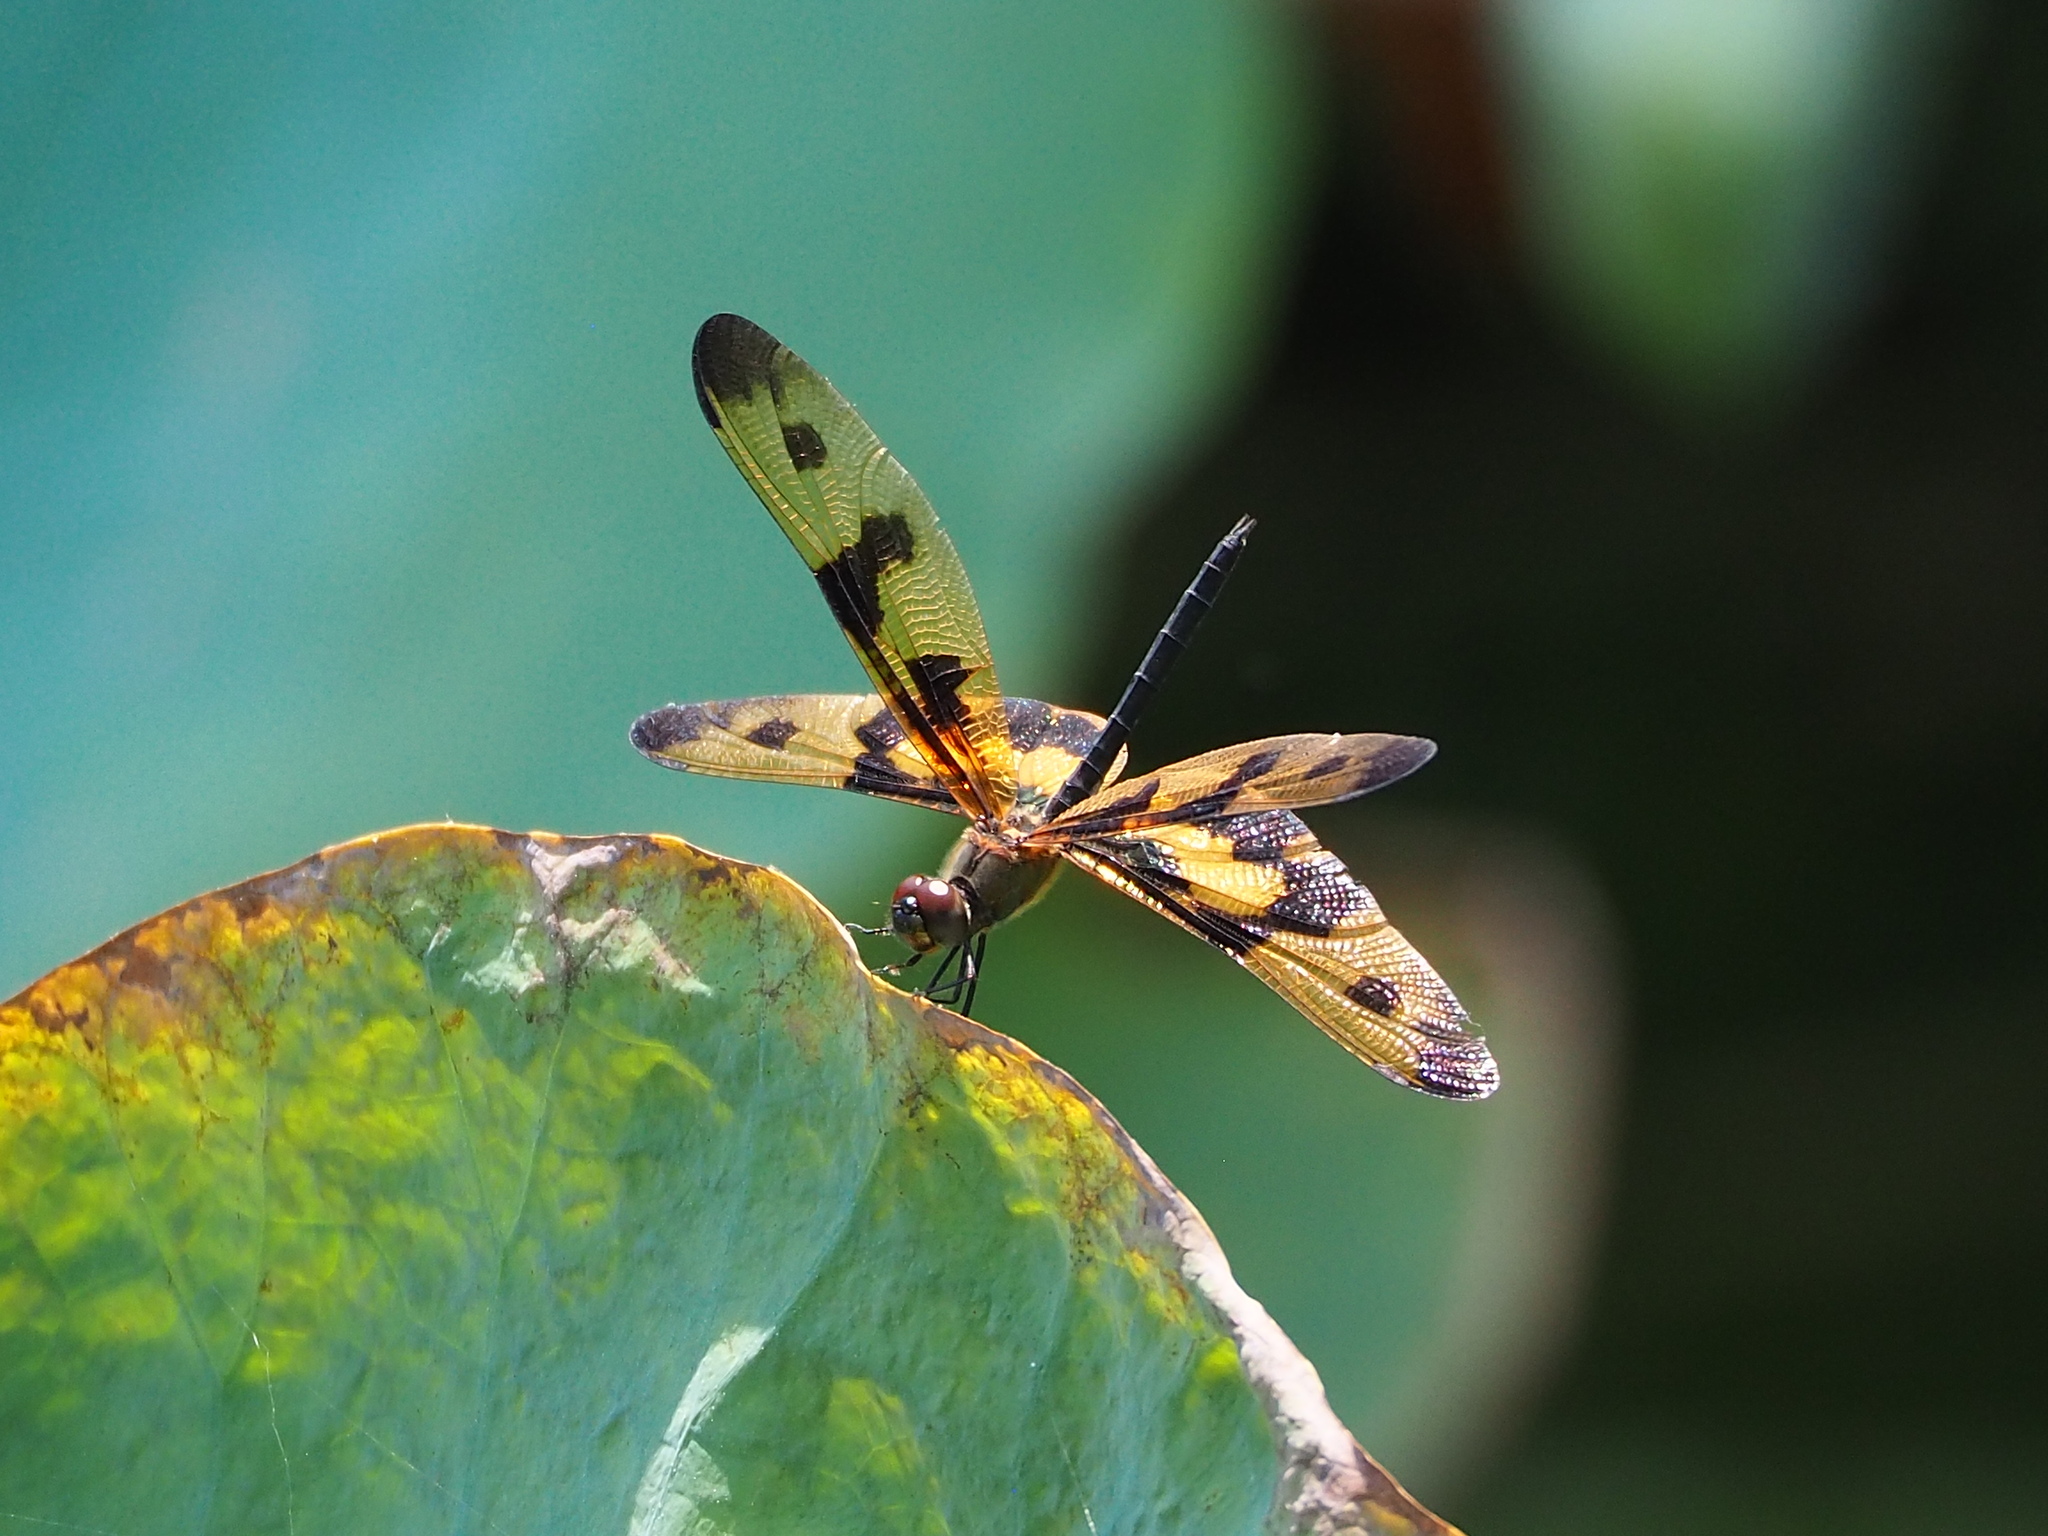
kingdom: Animalia
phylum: Arthropoda
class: Insecta
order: Odonata
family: Libellulidae
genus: Rhyothemis
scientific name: Rhyothemis variegata
